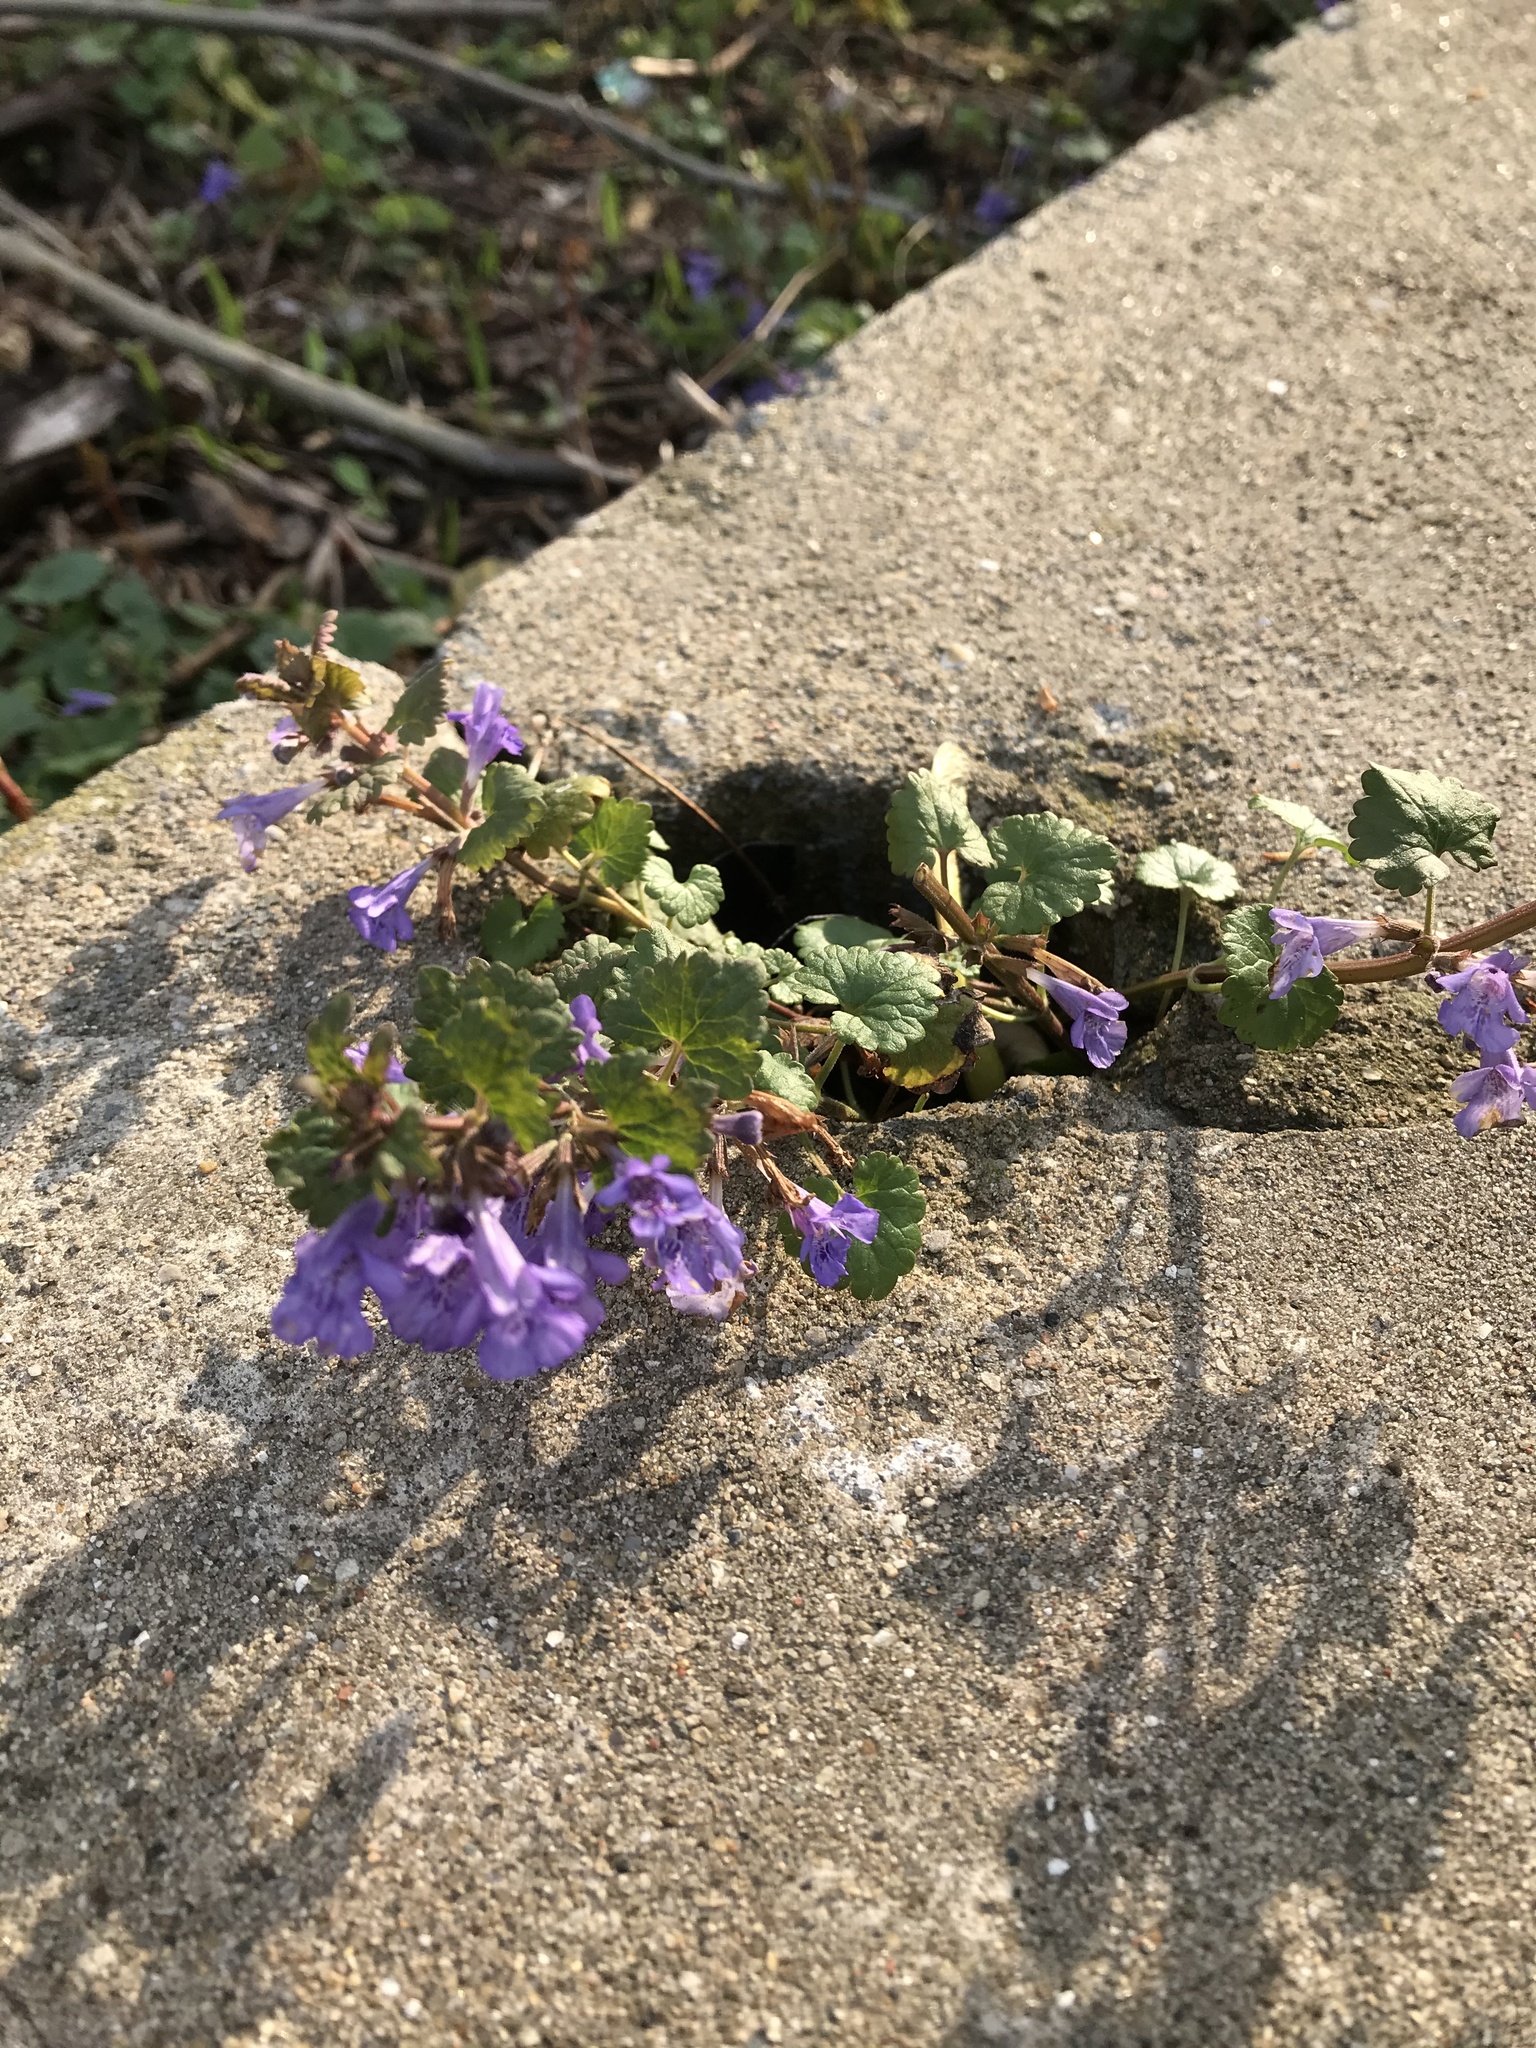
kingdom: Plantae
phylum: Tracheophyta
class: Magnoliopsida
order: Lamiales
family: Lamiaceae
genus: Glechoma
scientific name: Glechoma hederacea
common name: Ground ivy
